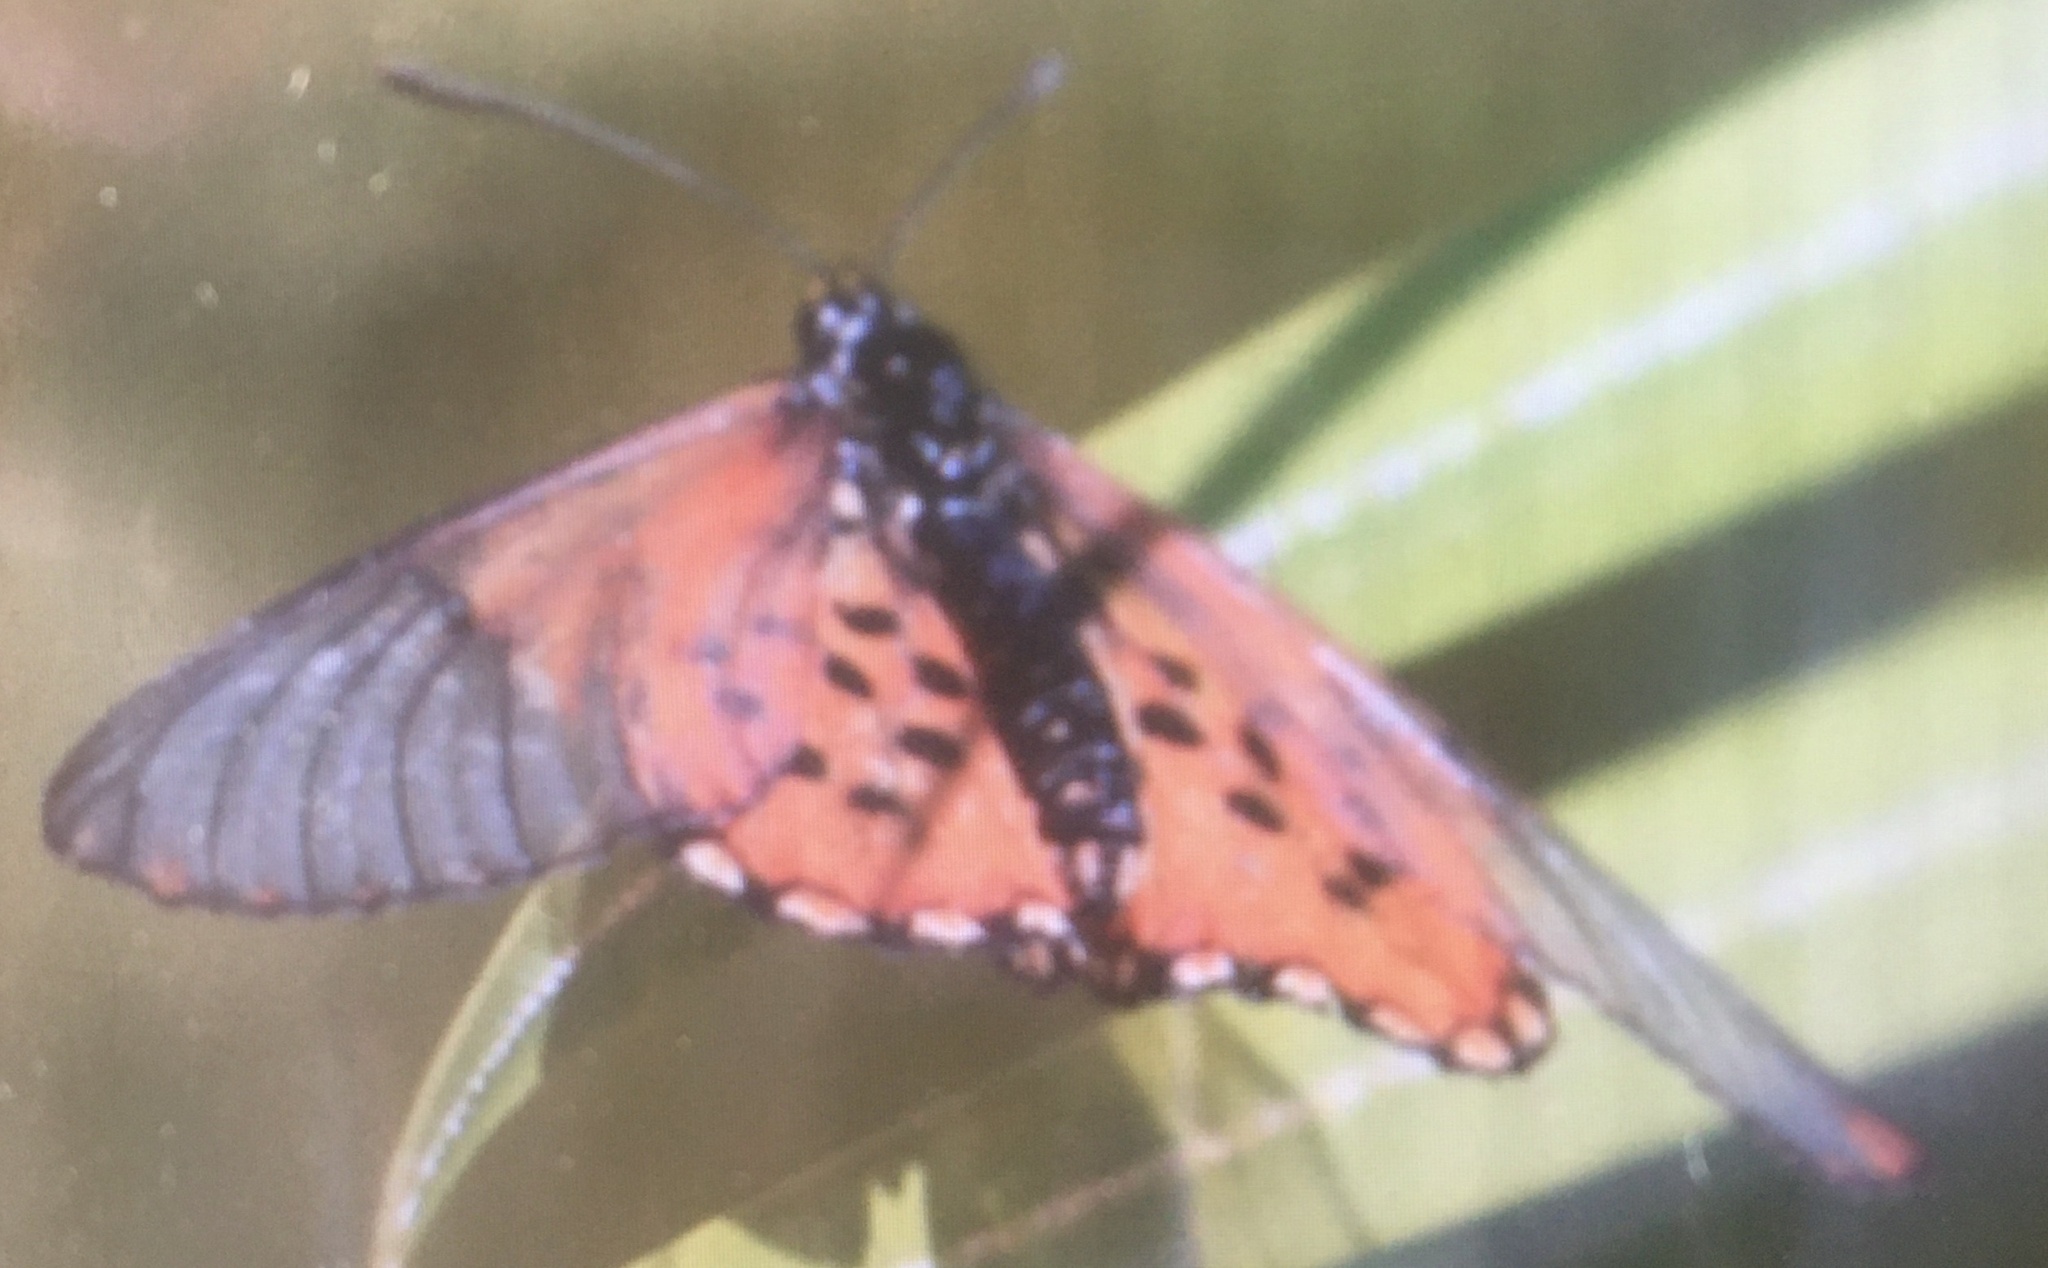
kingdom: Animalia
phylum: Arthropoda
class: Insecta
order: Lepidoptera
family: Nymphalidae
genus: Acraea
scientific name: Acraea horta
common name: Garden acraea
